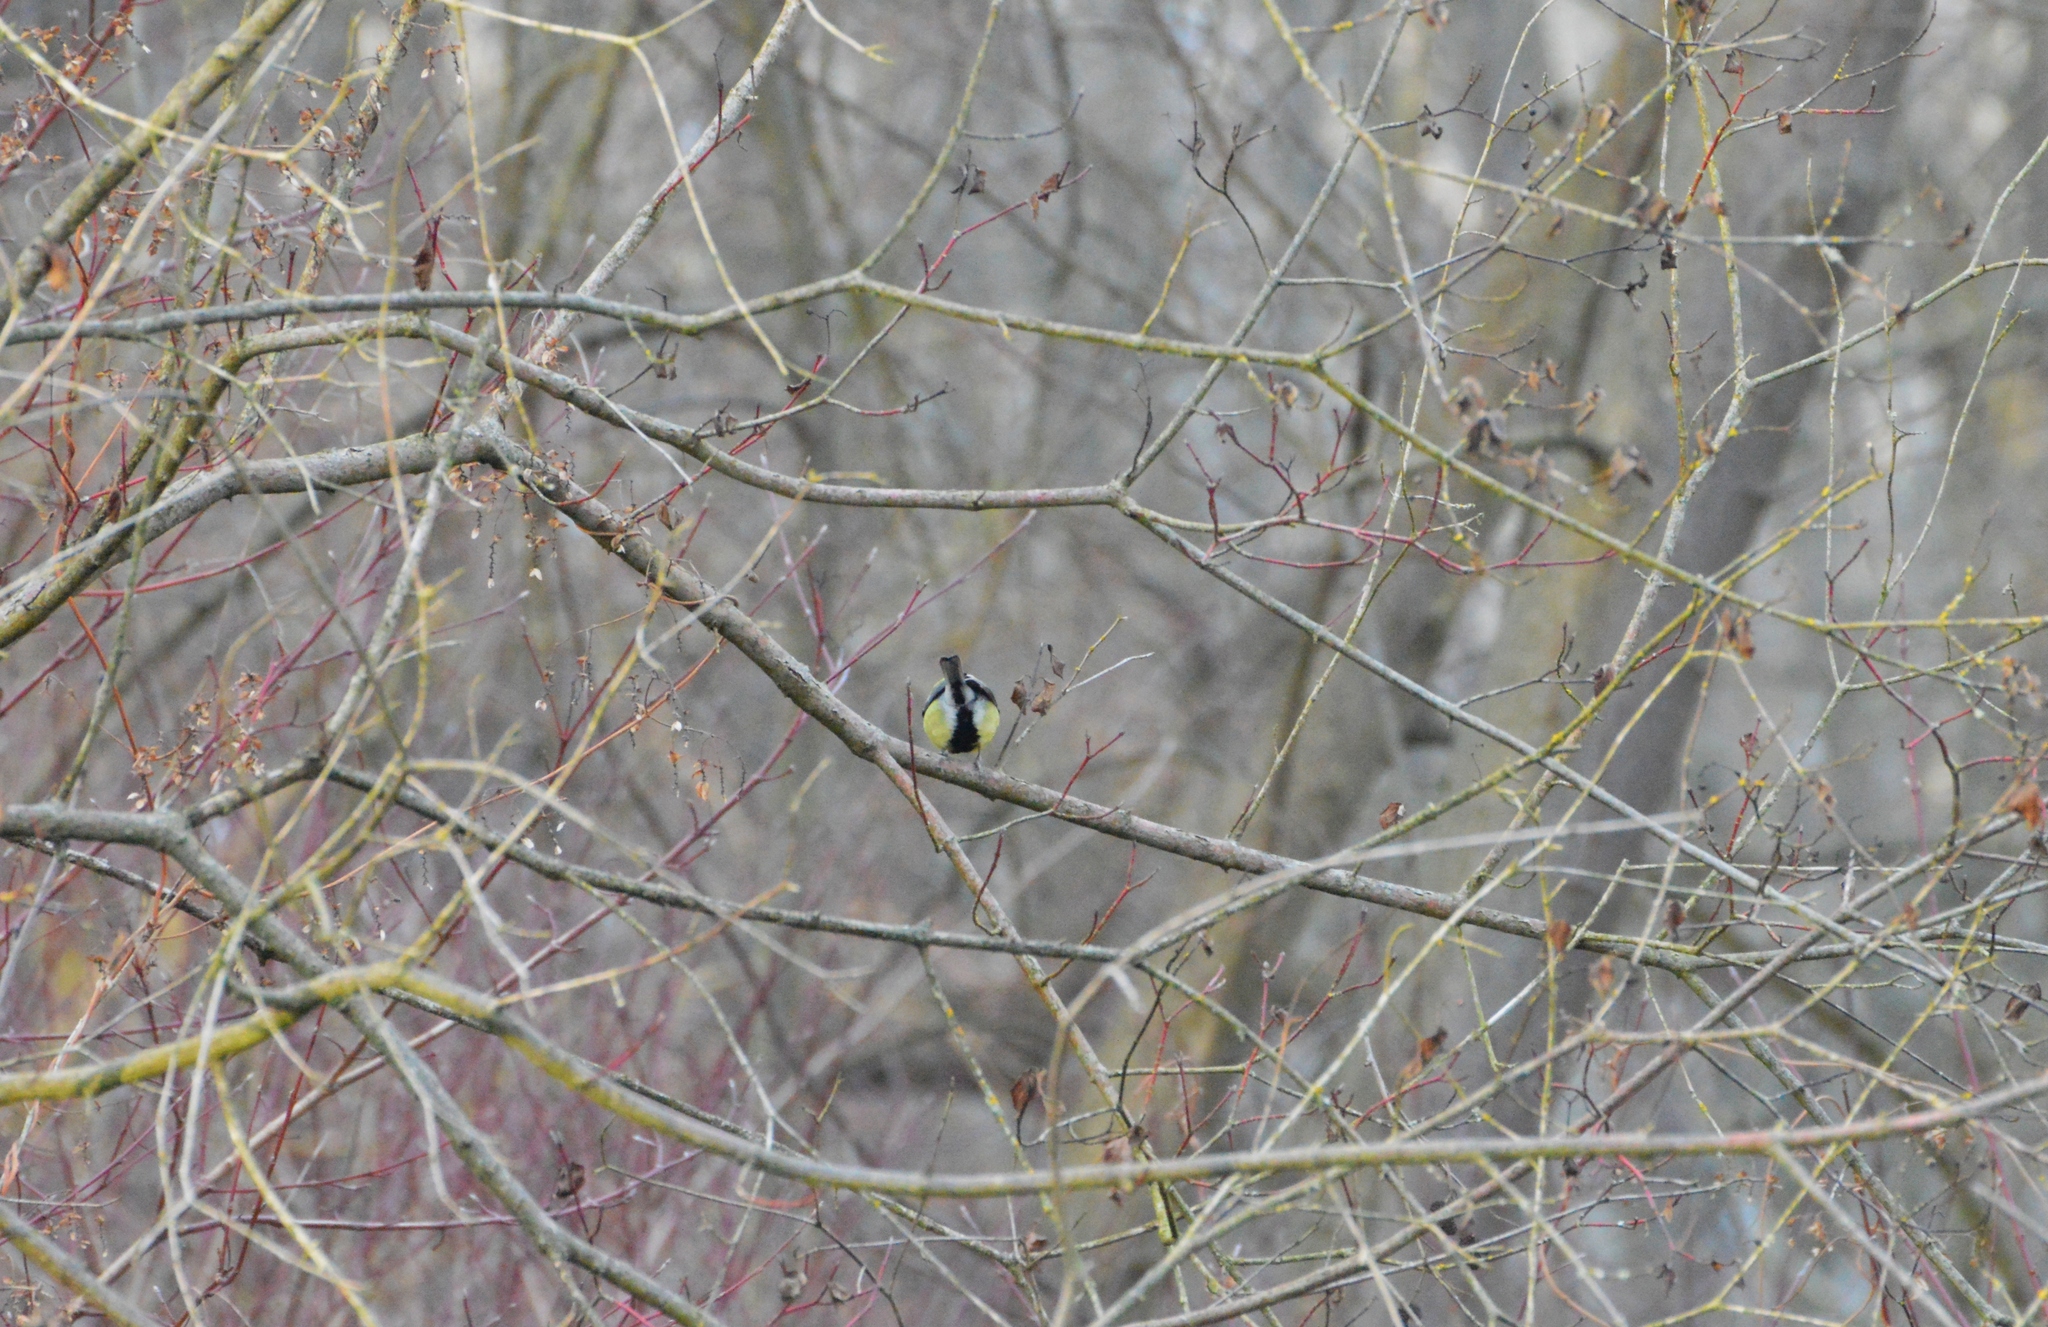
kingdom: Animalia
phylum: Chordata
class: Aves
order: Passeriformes
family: Paridae
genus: Parus
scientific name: Parus major
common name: Great tit
